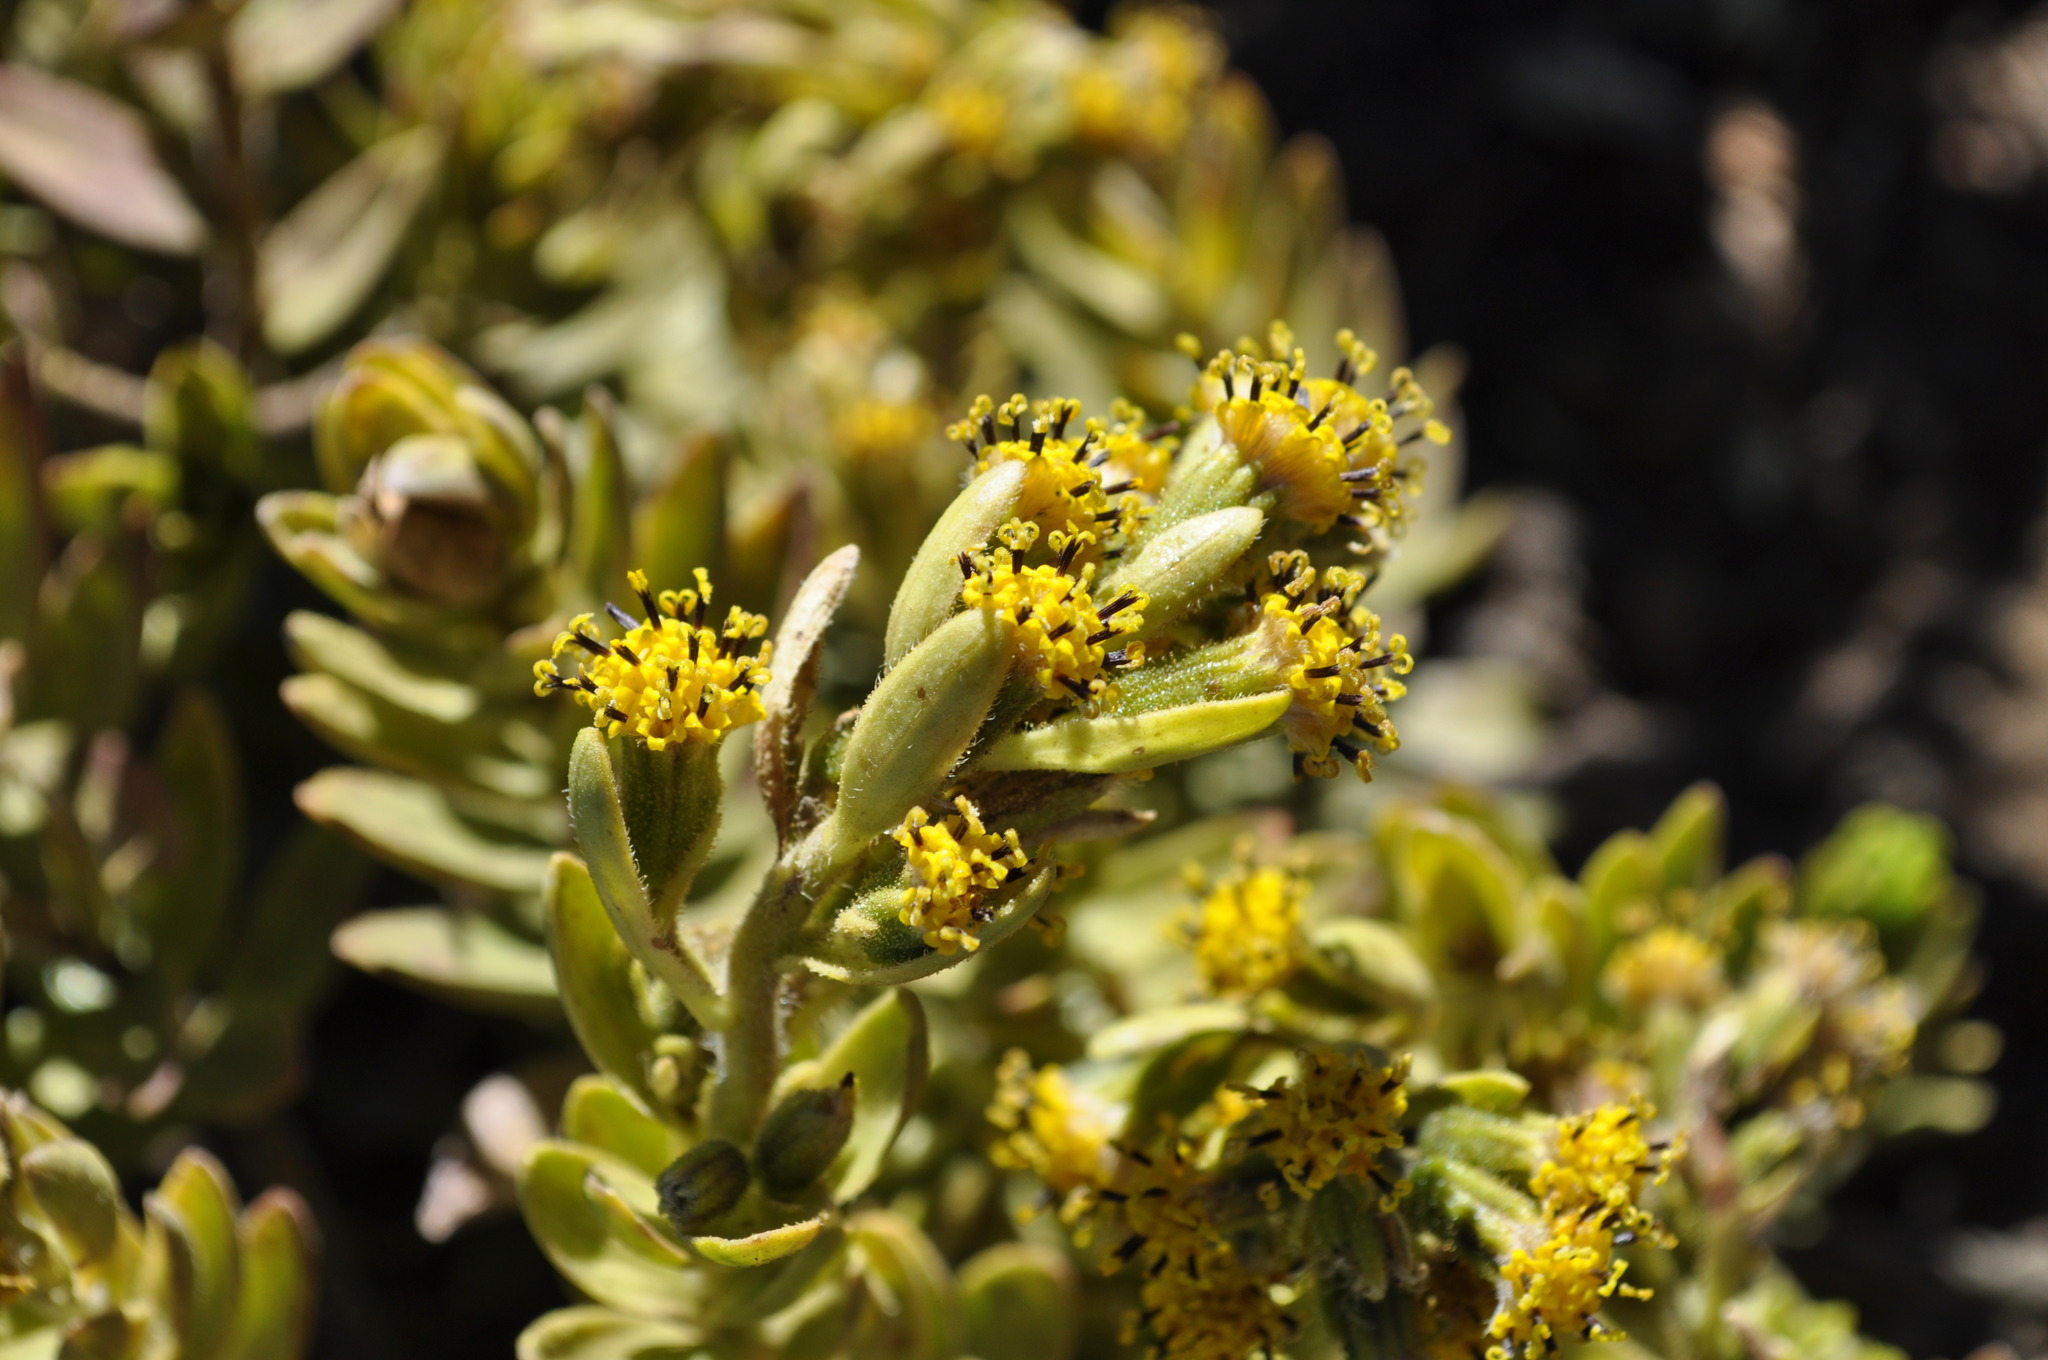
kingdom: Plantae
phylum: Tracheophyta
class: Magnoliopsida
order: Asterales
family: Asteraceae
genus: Dubautia
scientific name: Dubautia menziesii
